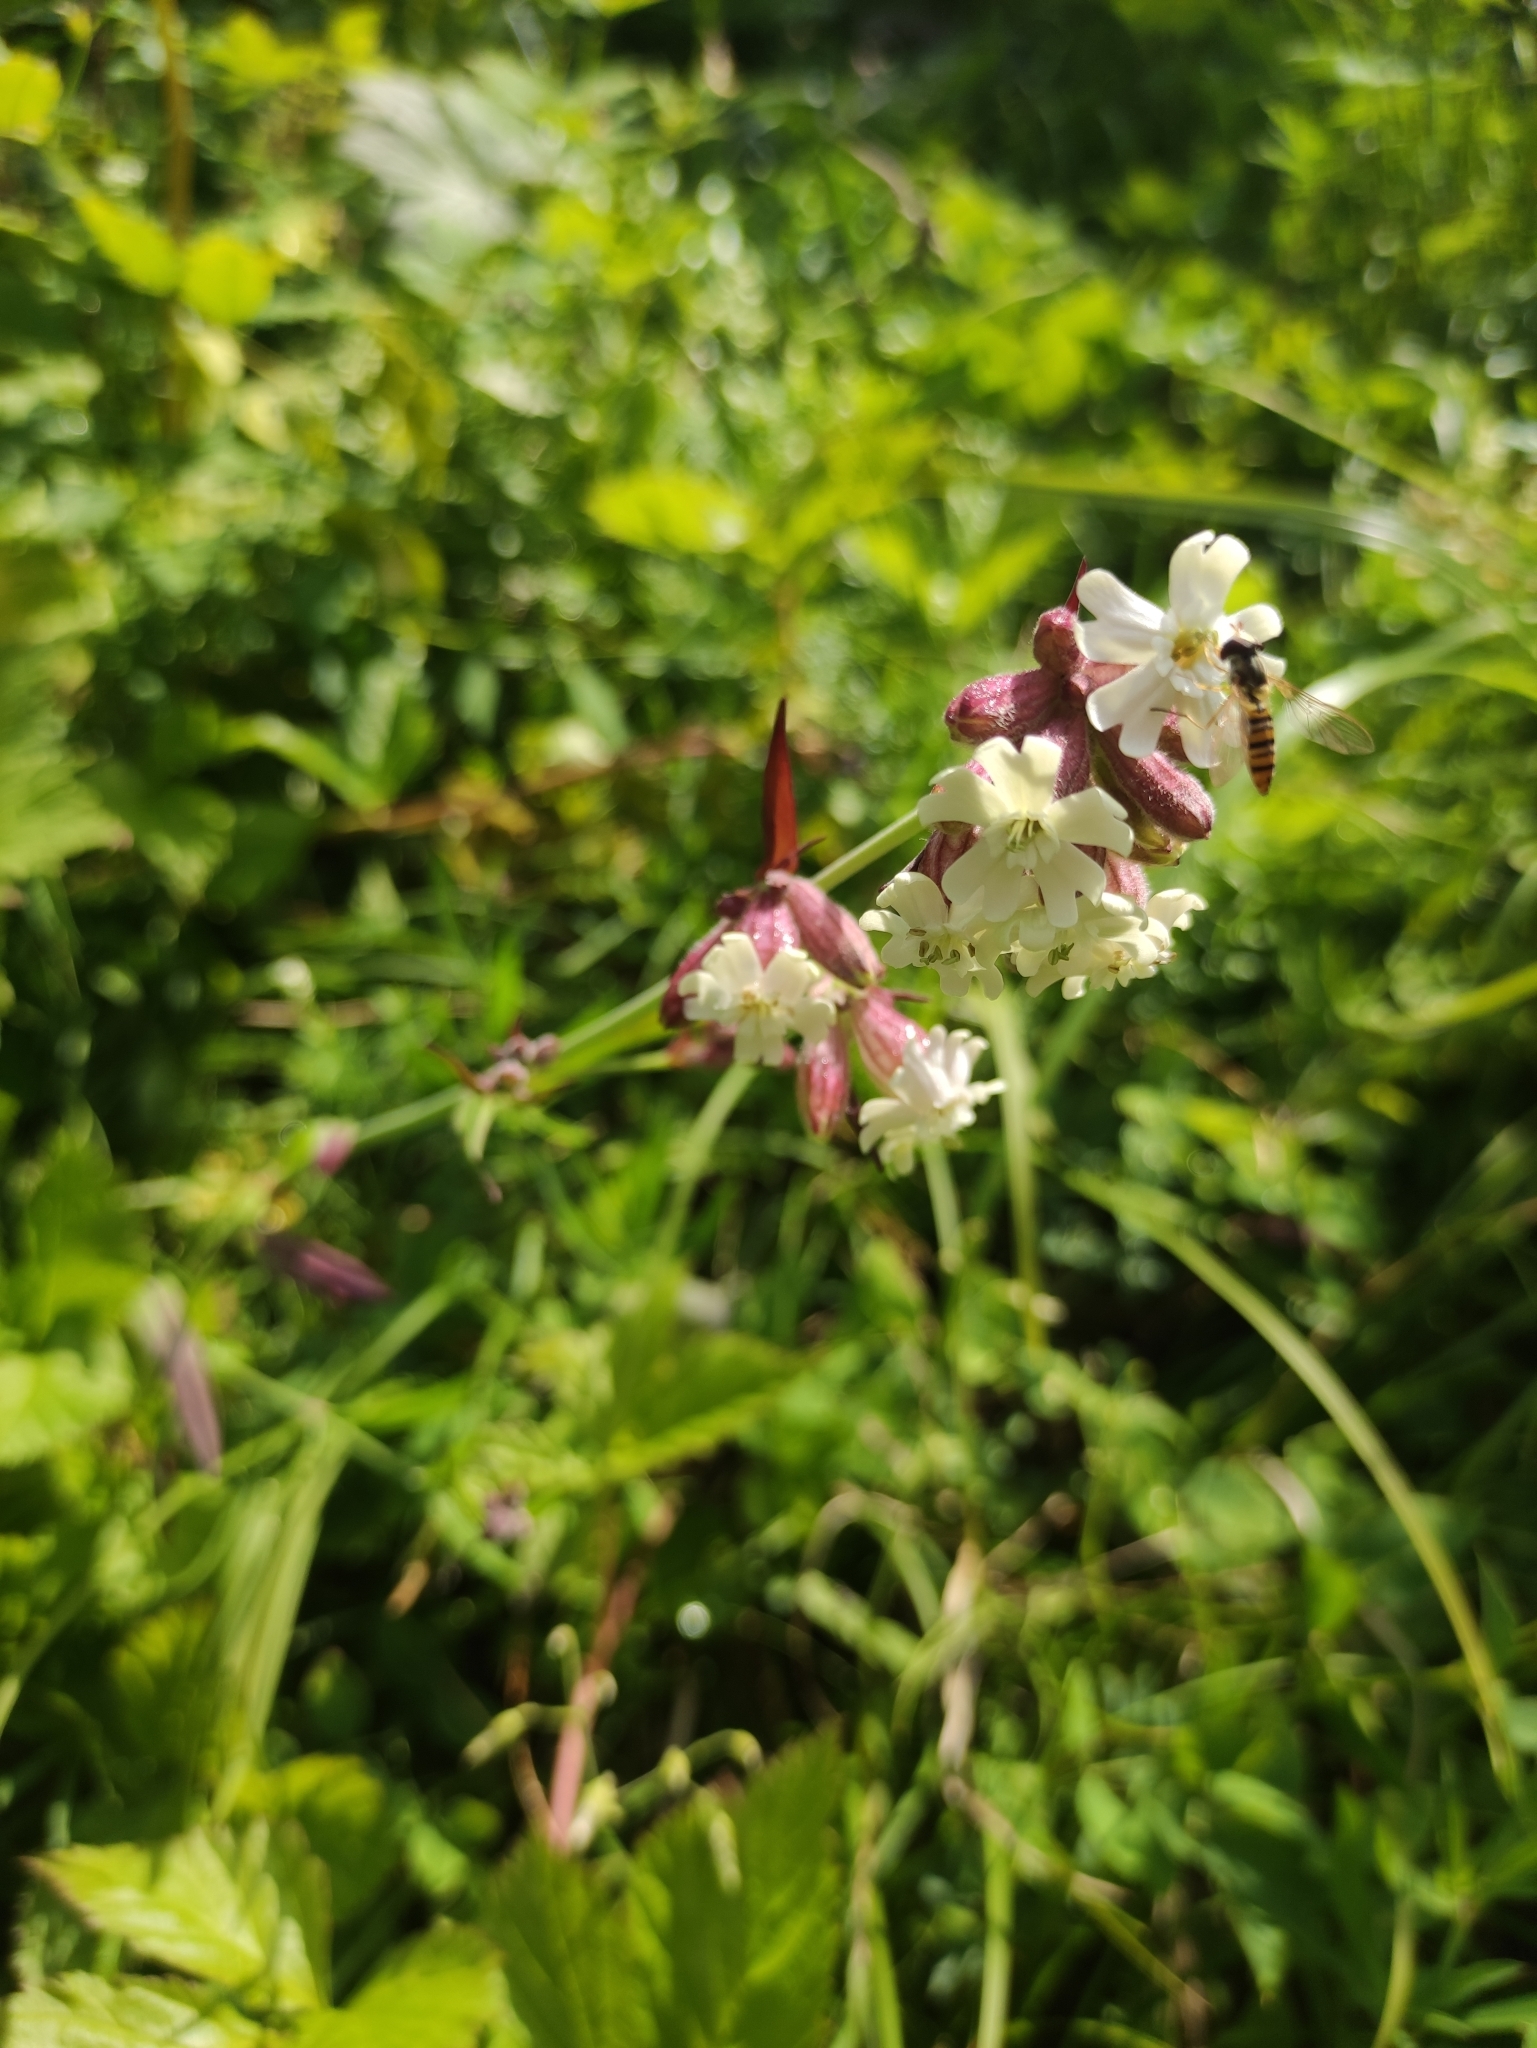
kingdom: Plantae
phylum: Tracheophyta
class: Magnoliopsida
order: Caryophyllales
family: Caryophyllaceae
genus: Silene
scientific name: Silene amoena
